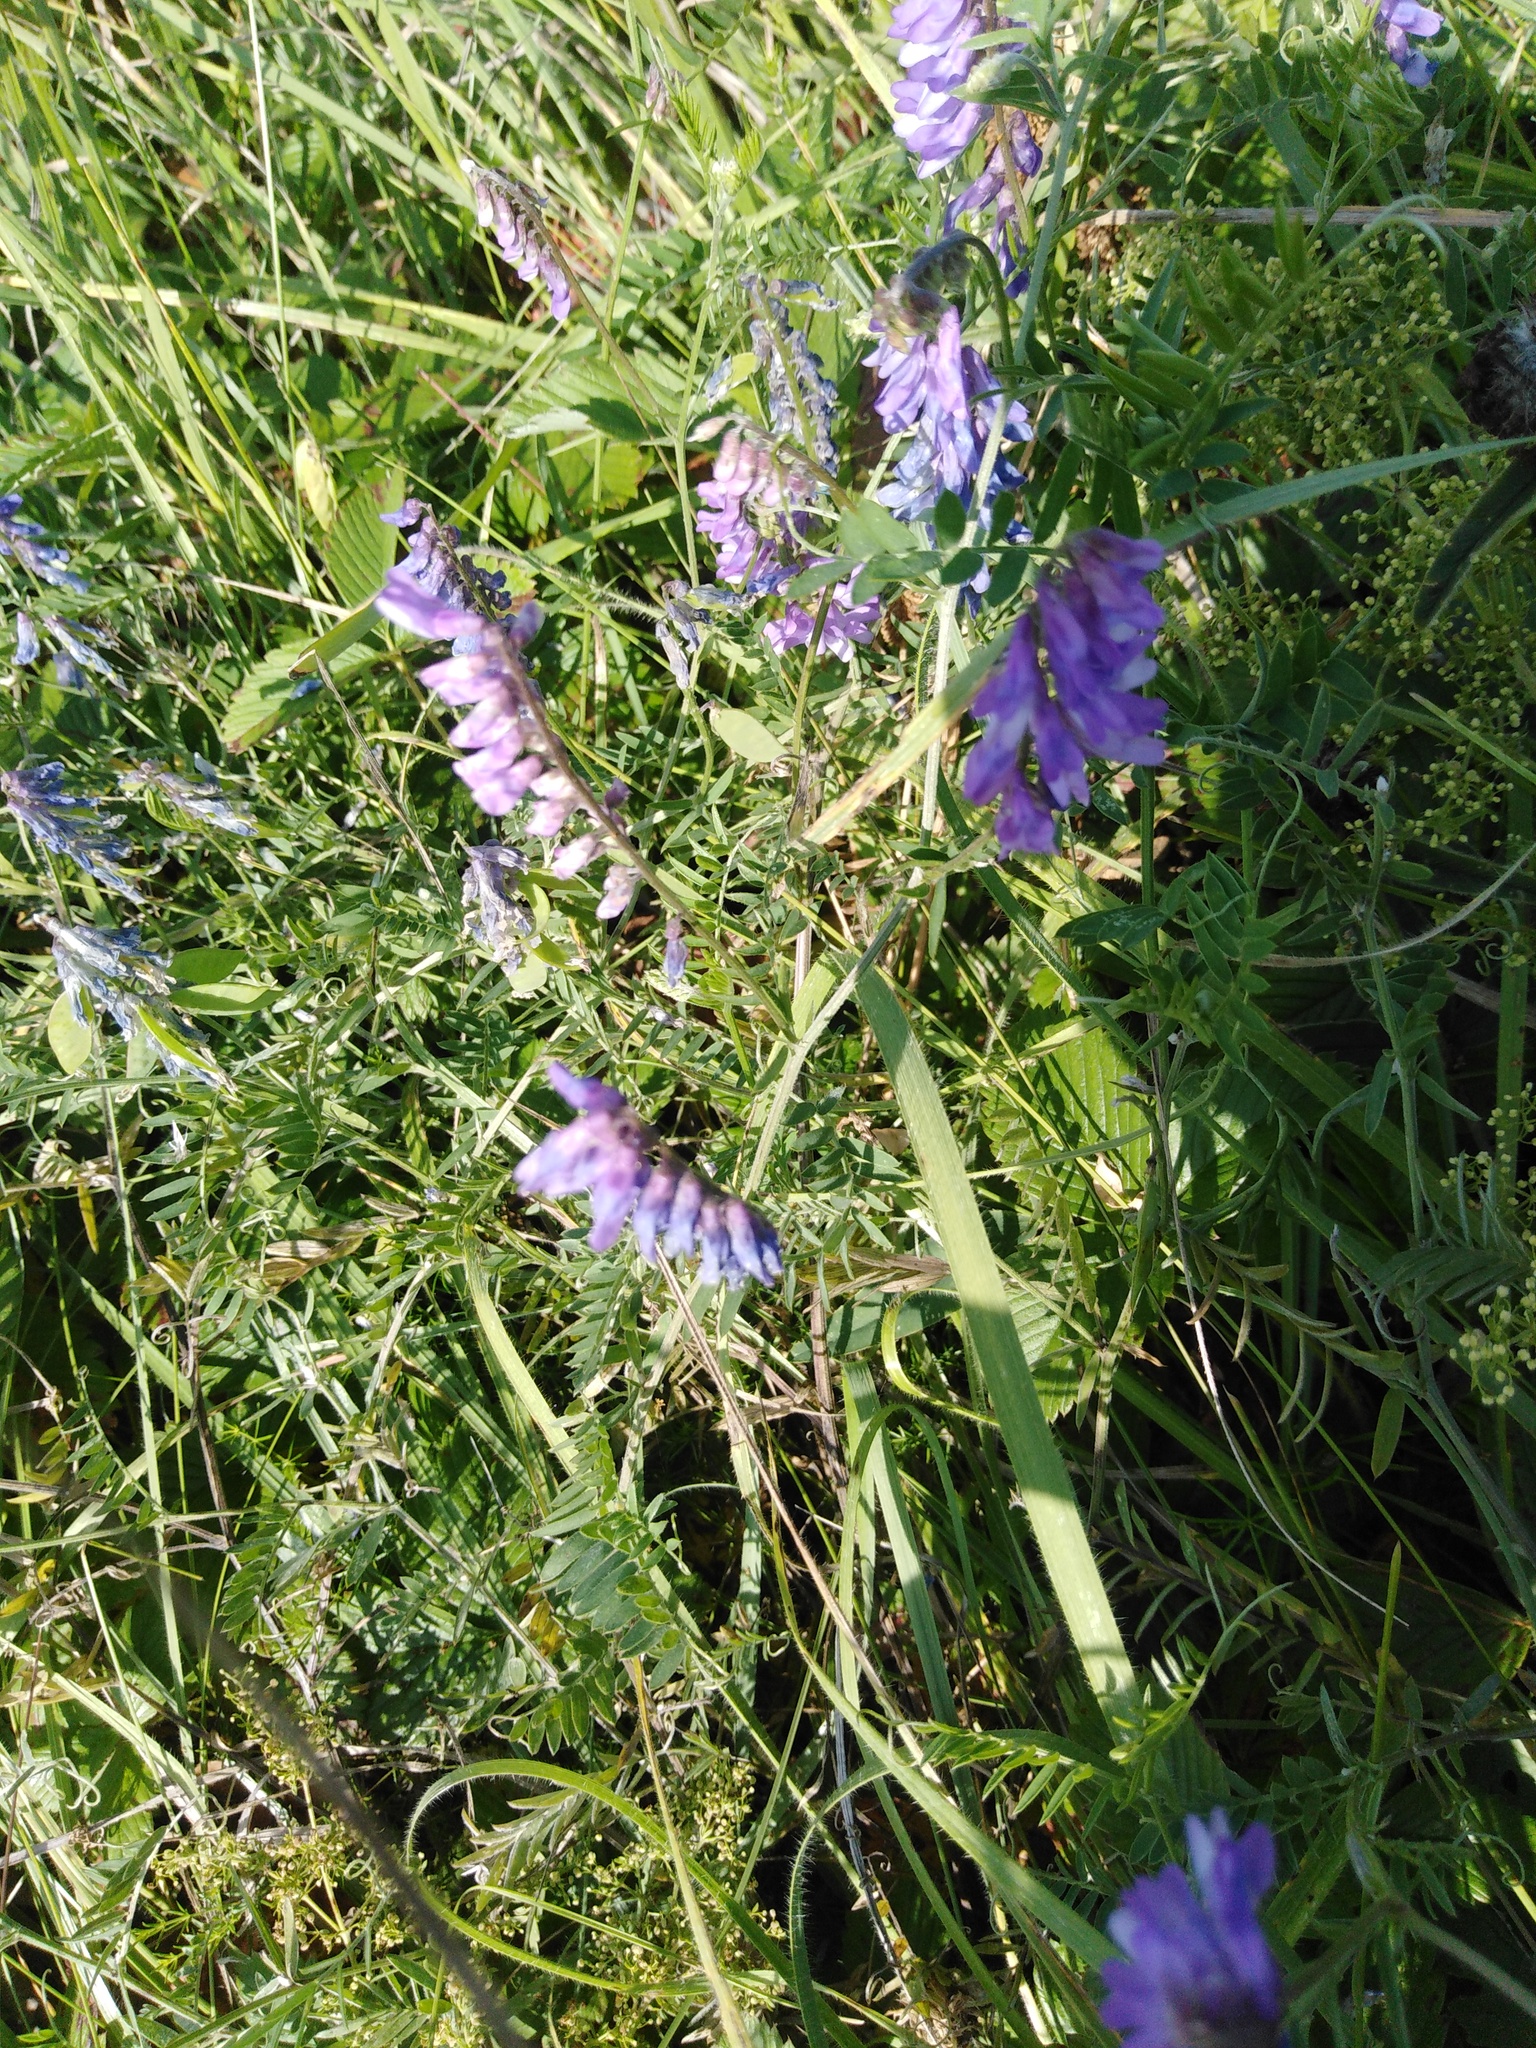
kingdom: Plantae
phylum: Tracheophyta
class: Magnoliopsida
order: Fabales
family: Fabaceae
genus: Vicia
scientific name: Vicia cracca
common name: Bird vetch
